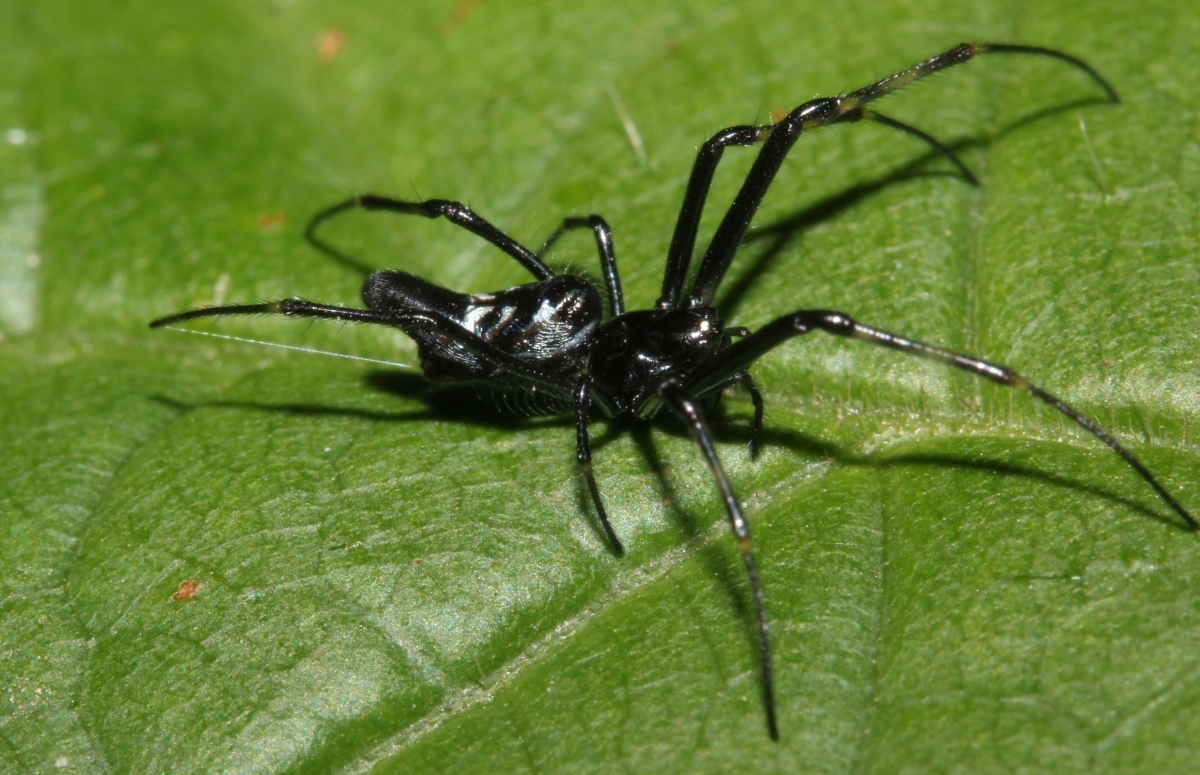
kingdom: Animalia
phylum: Arthropoda
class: Arachnida
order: Araneae
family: Tetragnathidae
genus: Leucauge
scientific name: Leucauge caudacuta
